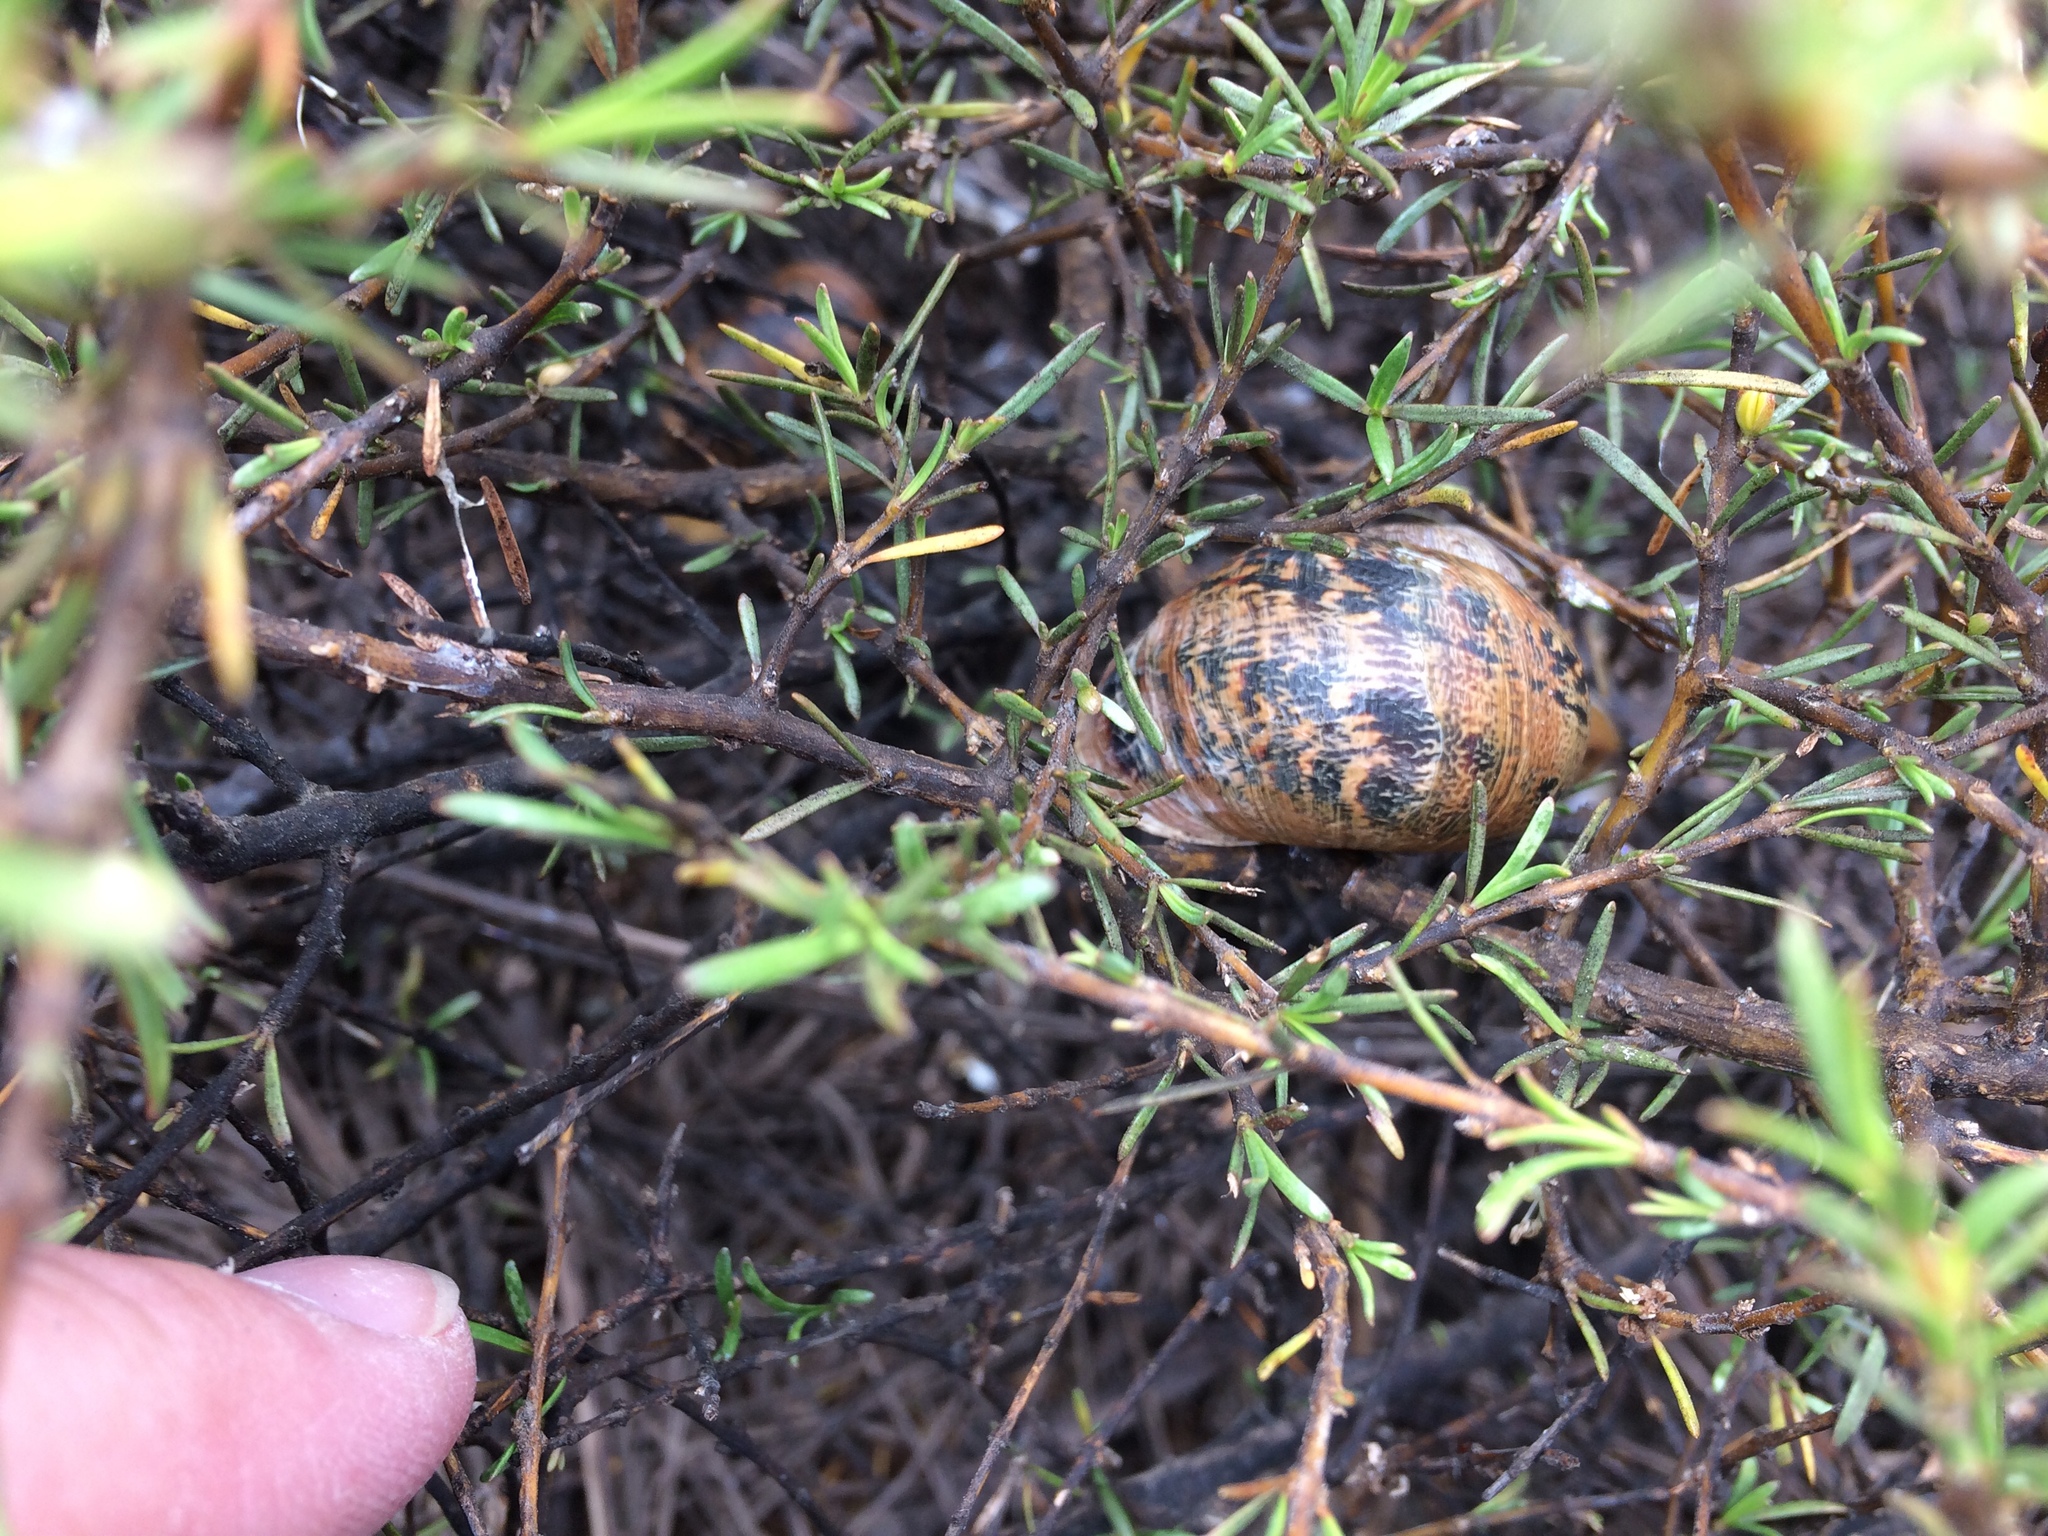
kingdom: Animalia
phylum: Mollusca
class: Gastropoda
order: Stylommatophora
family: Helicidae
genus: Cornu
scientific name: Cornu aspersum
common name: Brown garden snail
